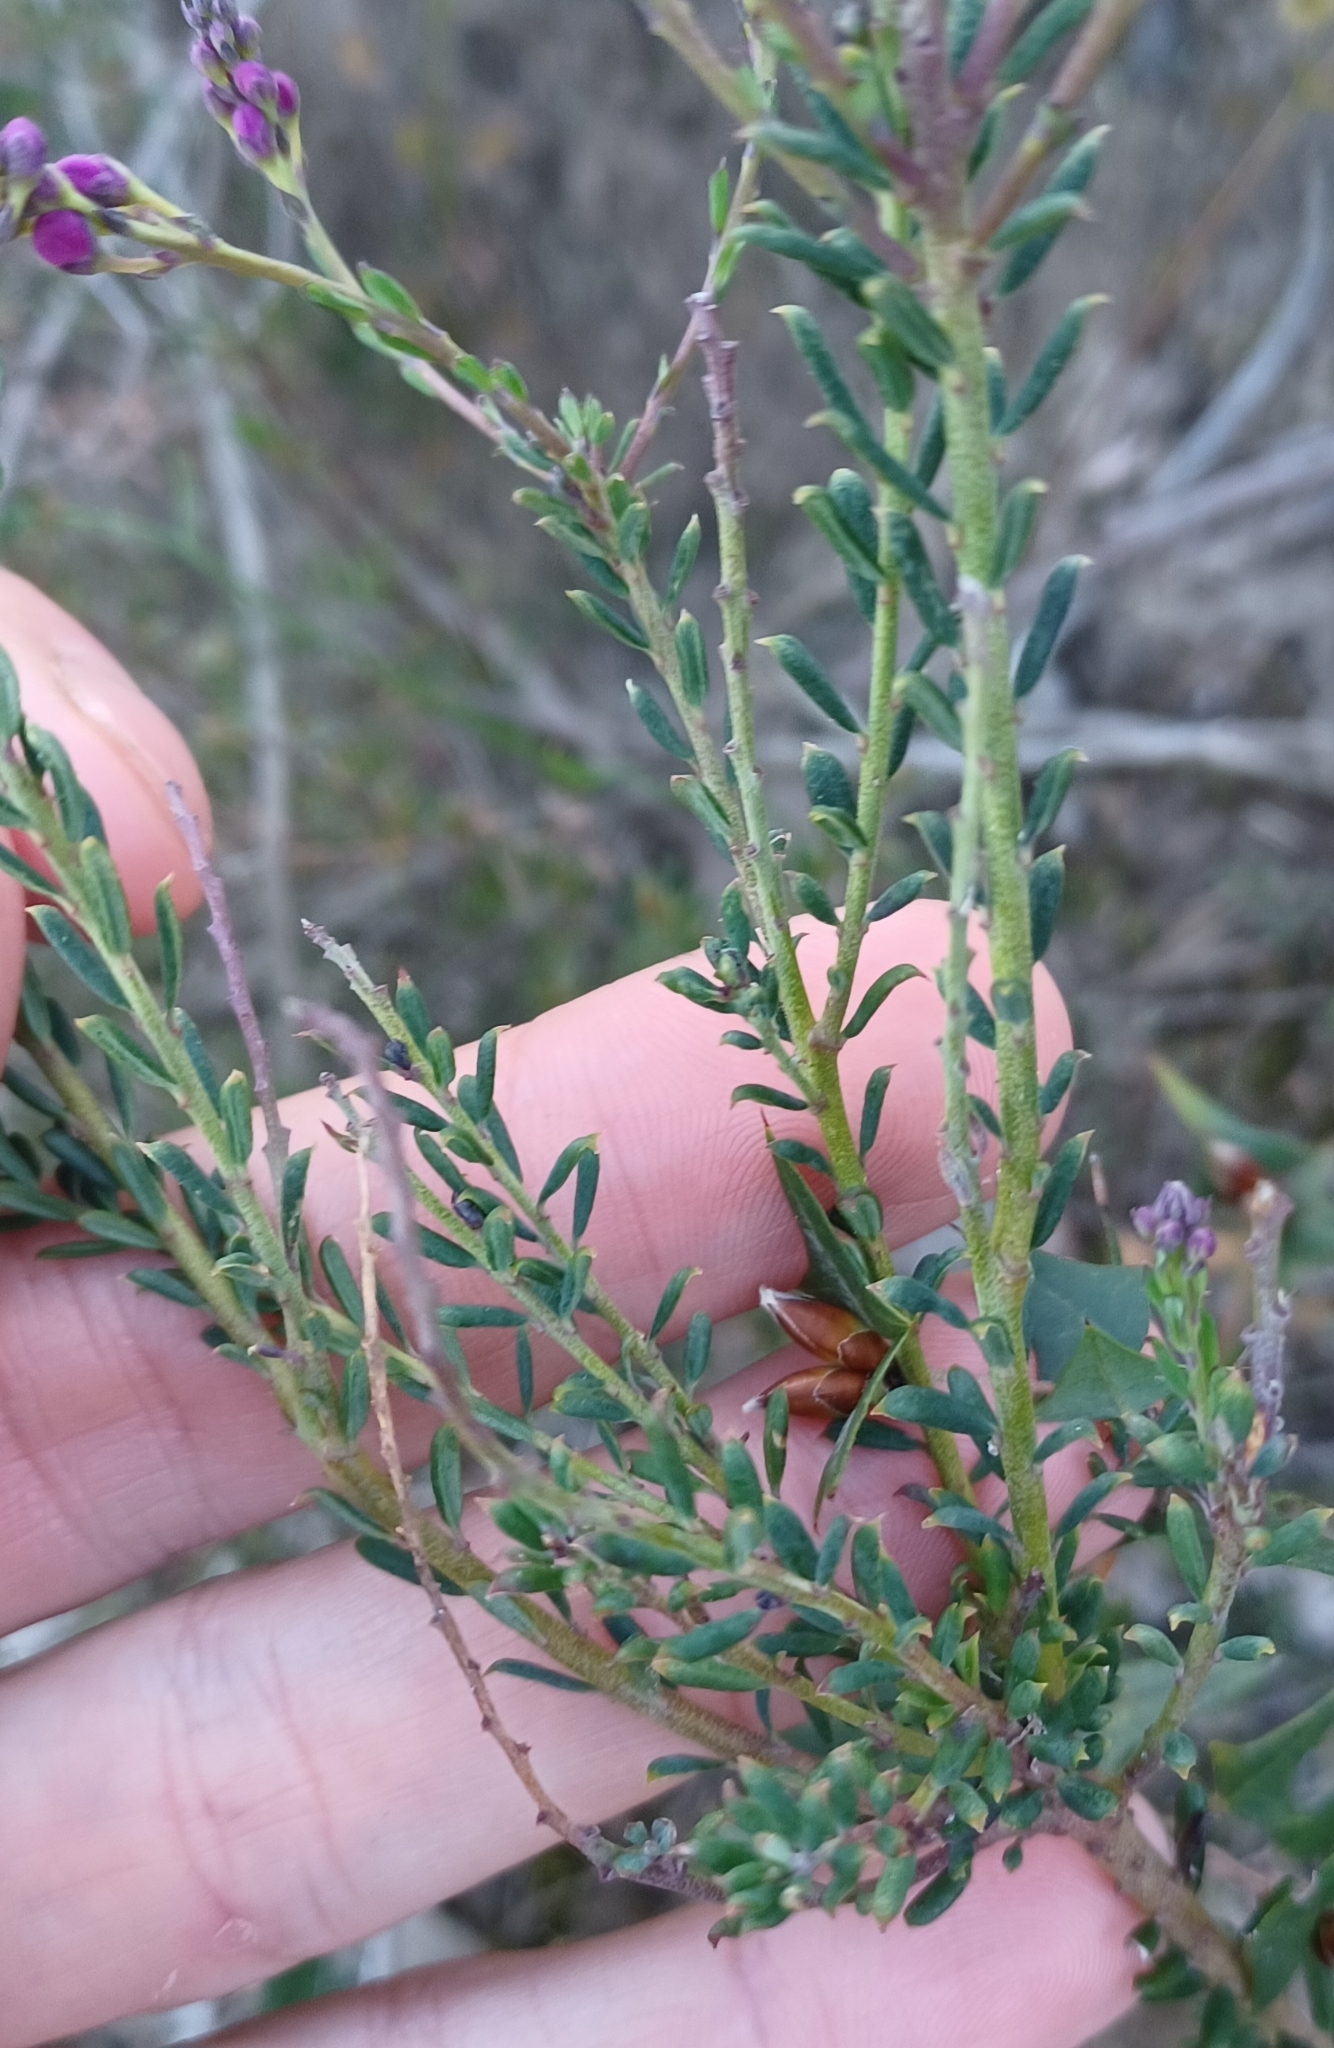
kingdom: Plantae
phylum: Tracheophyta
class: Magnoliopsida
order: Fabales
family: Polygalaceae
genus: Comesperma
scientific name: Comesperma ericinum
